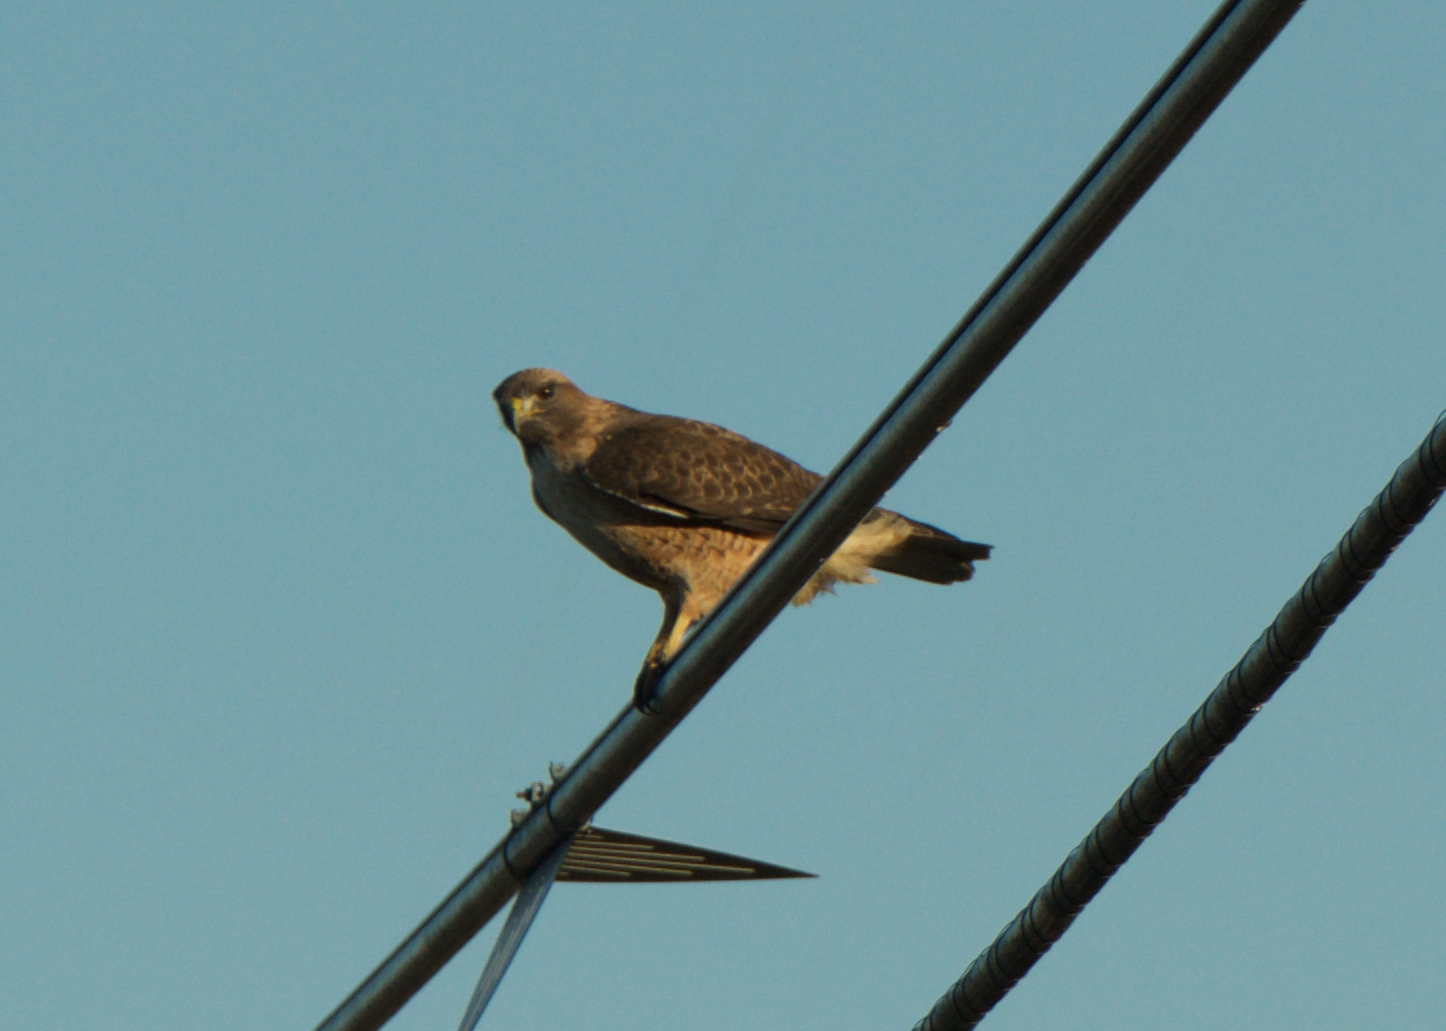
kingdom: Animalia
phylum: Chordata
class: Aves
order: Accipitriformes
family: Accipitridae
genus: Buteo
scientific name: Buteo jamaicensis
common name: Red-tailed hawk
